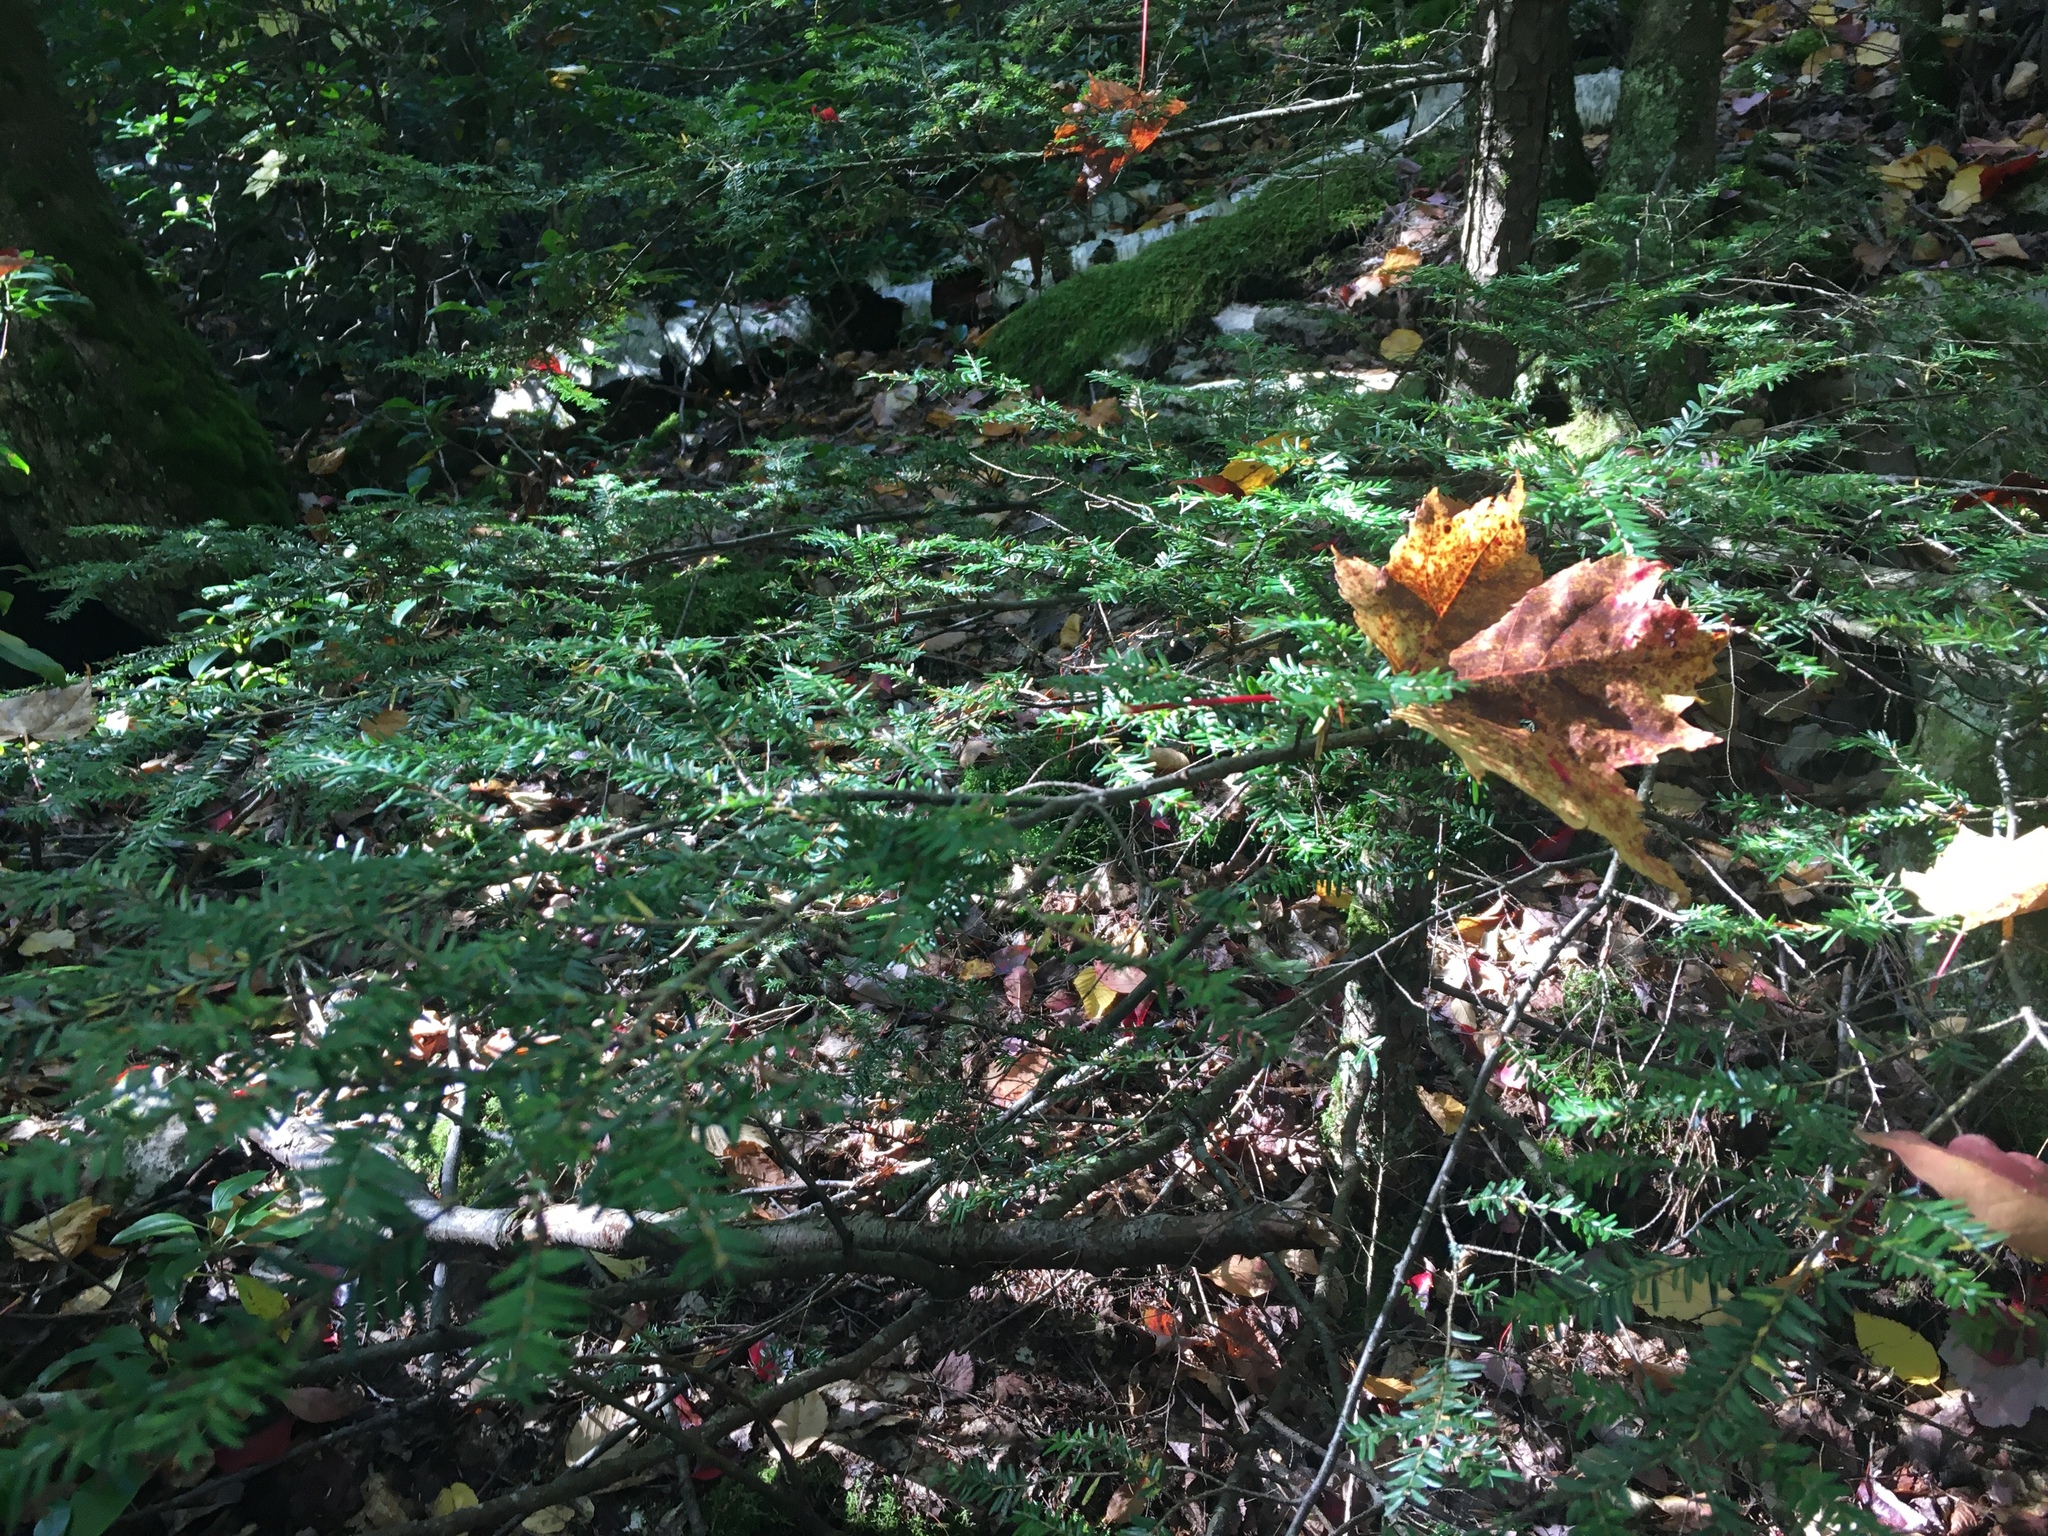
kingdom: Plantae
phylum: Tracheophyta
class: Pinopsida
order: Pinales
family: Pinaceae
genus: Tsuga
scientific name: Tsuga canadensis
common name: Eastern hemlock
